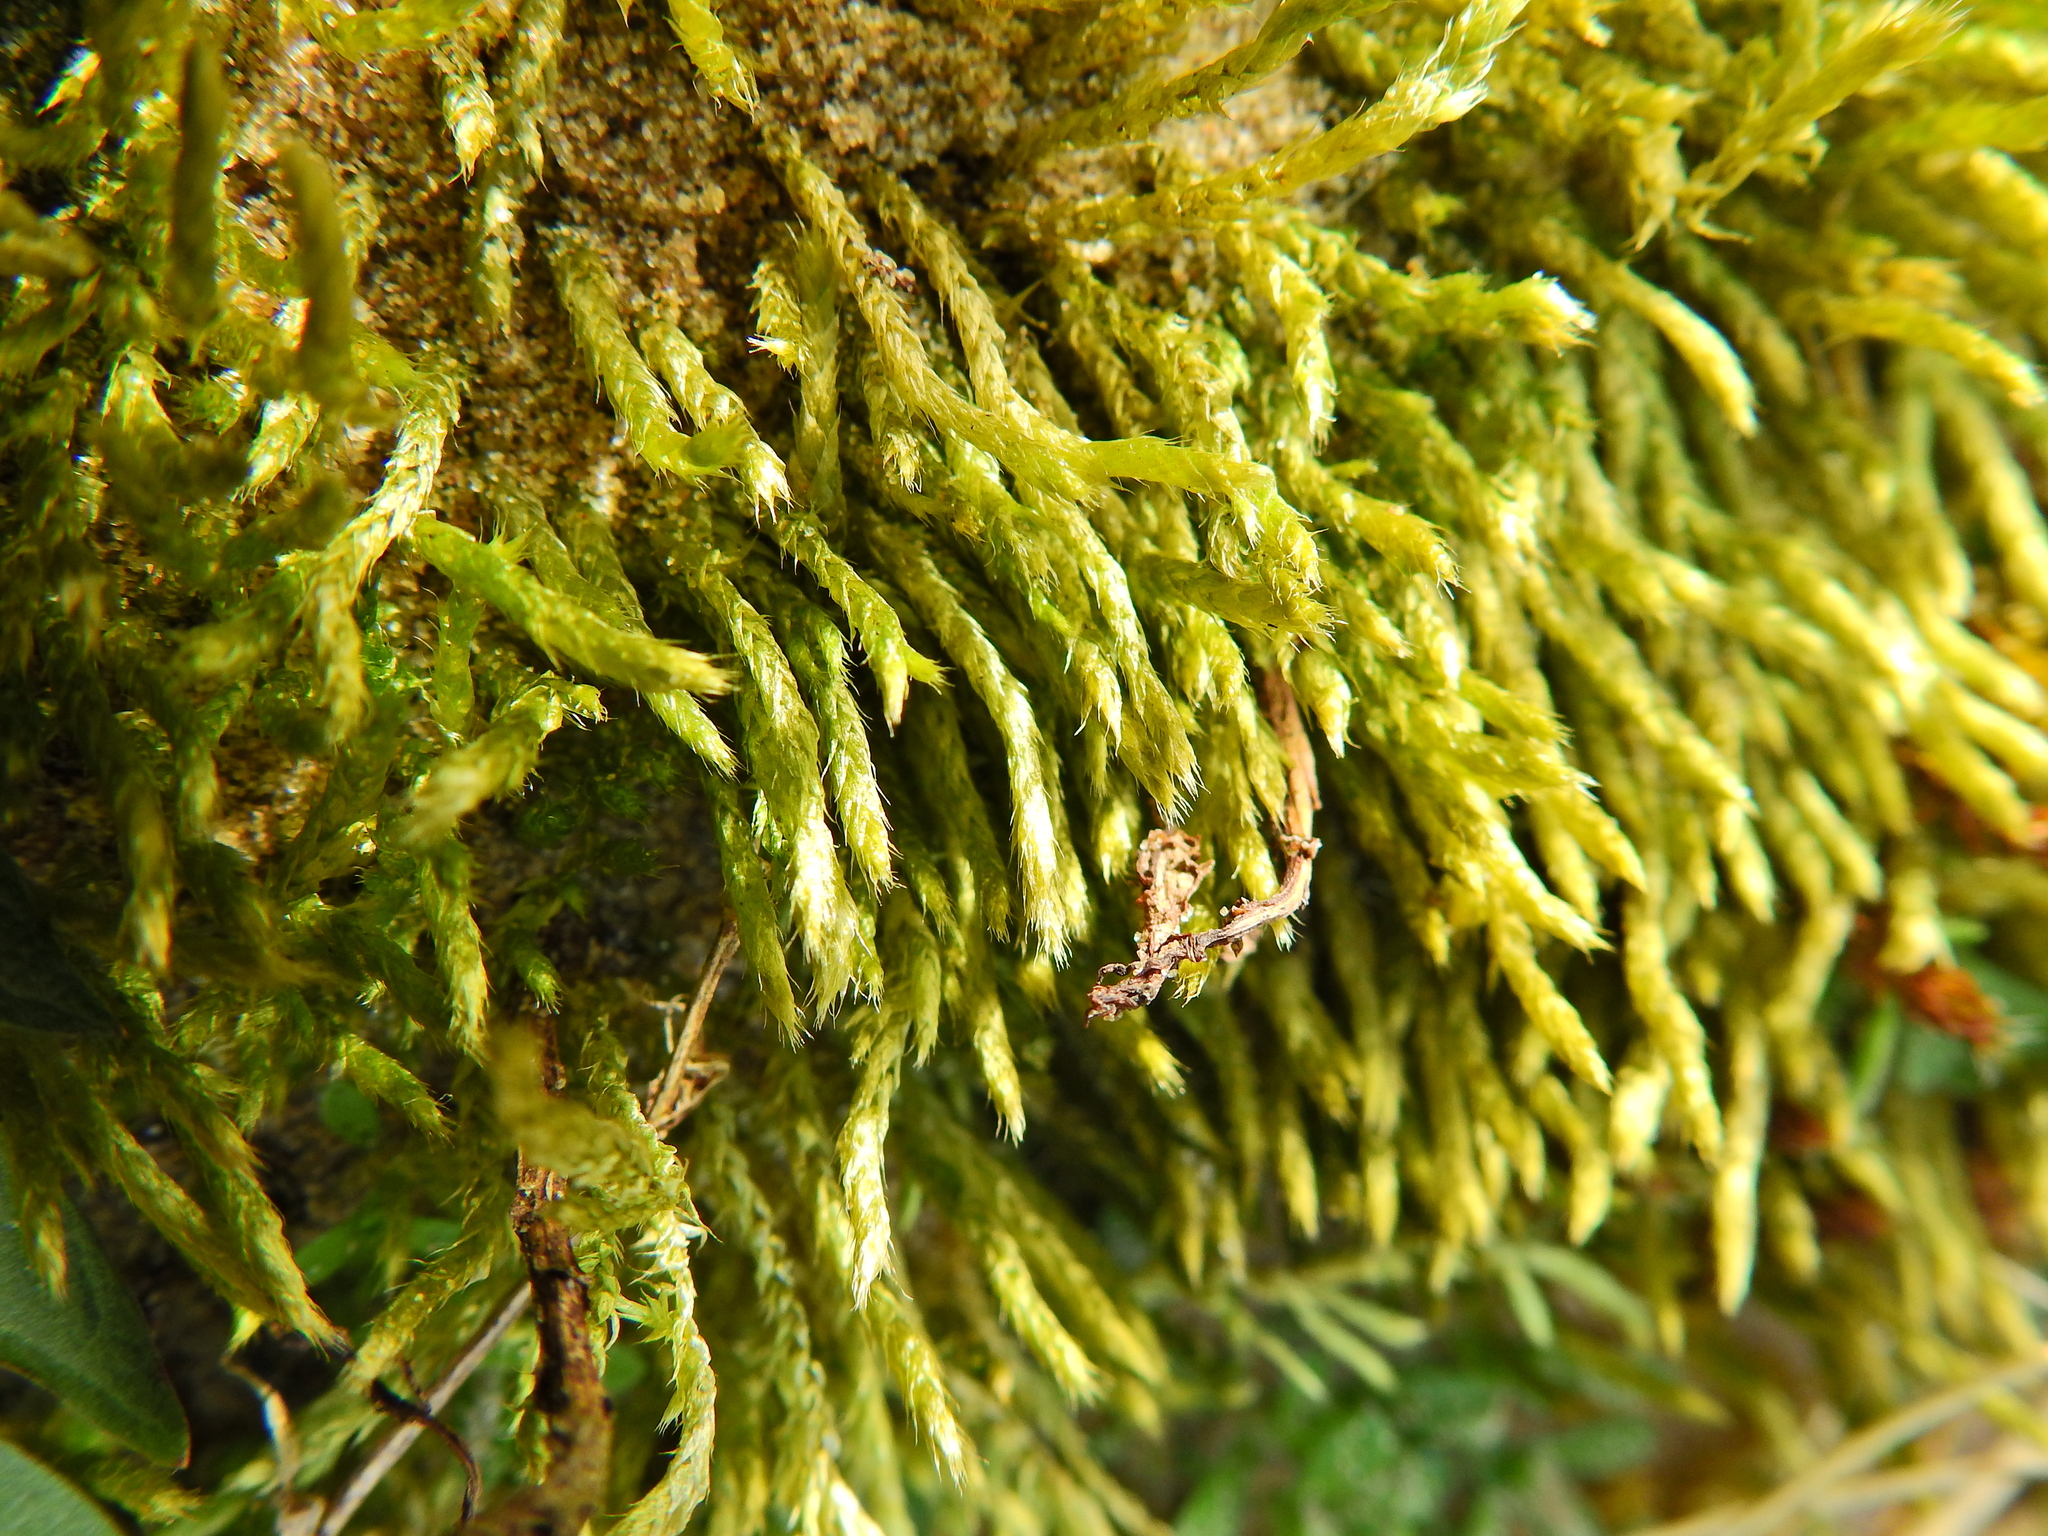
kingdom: Plantae
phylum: Bryophyta
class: Bryopsida
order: Hypnales
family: Brachytheciaceae
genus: Brachythecium
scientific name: Brachythecium albicans
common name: Whitish ragged moss
